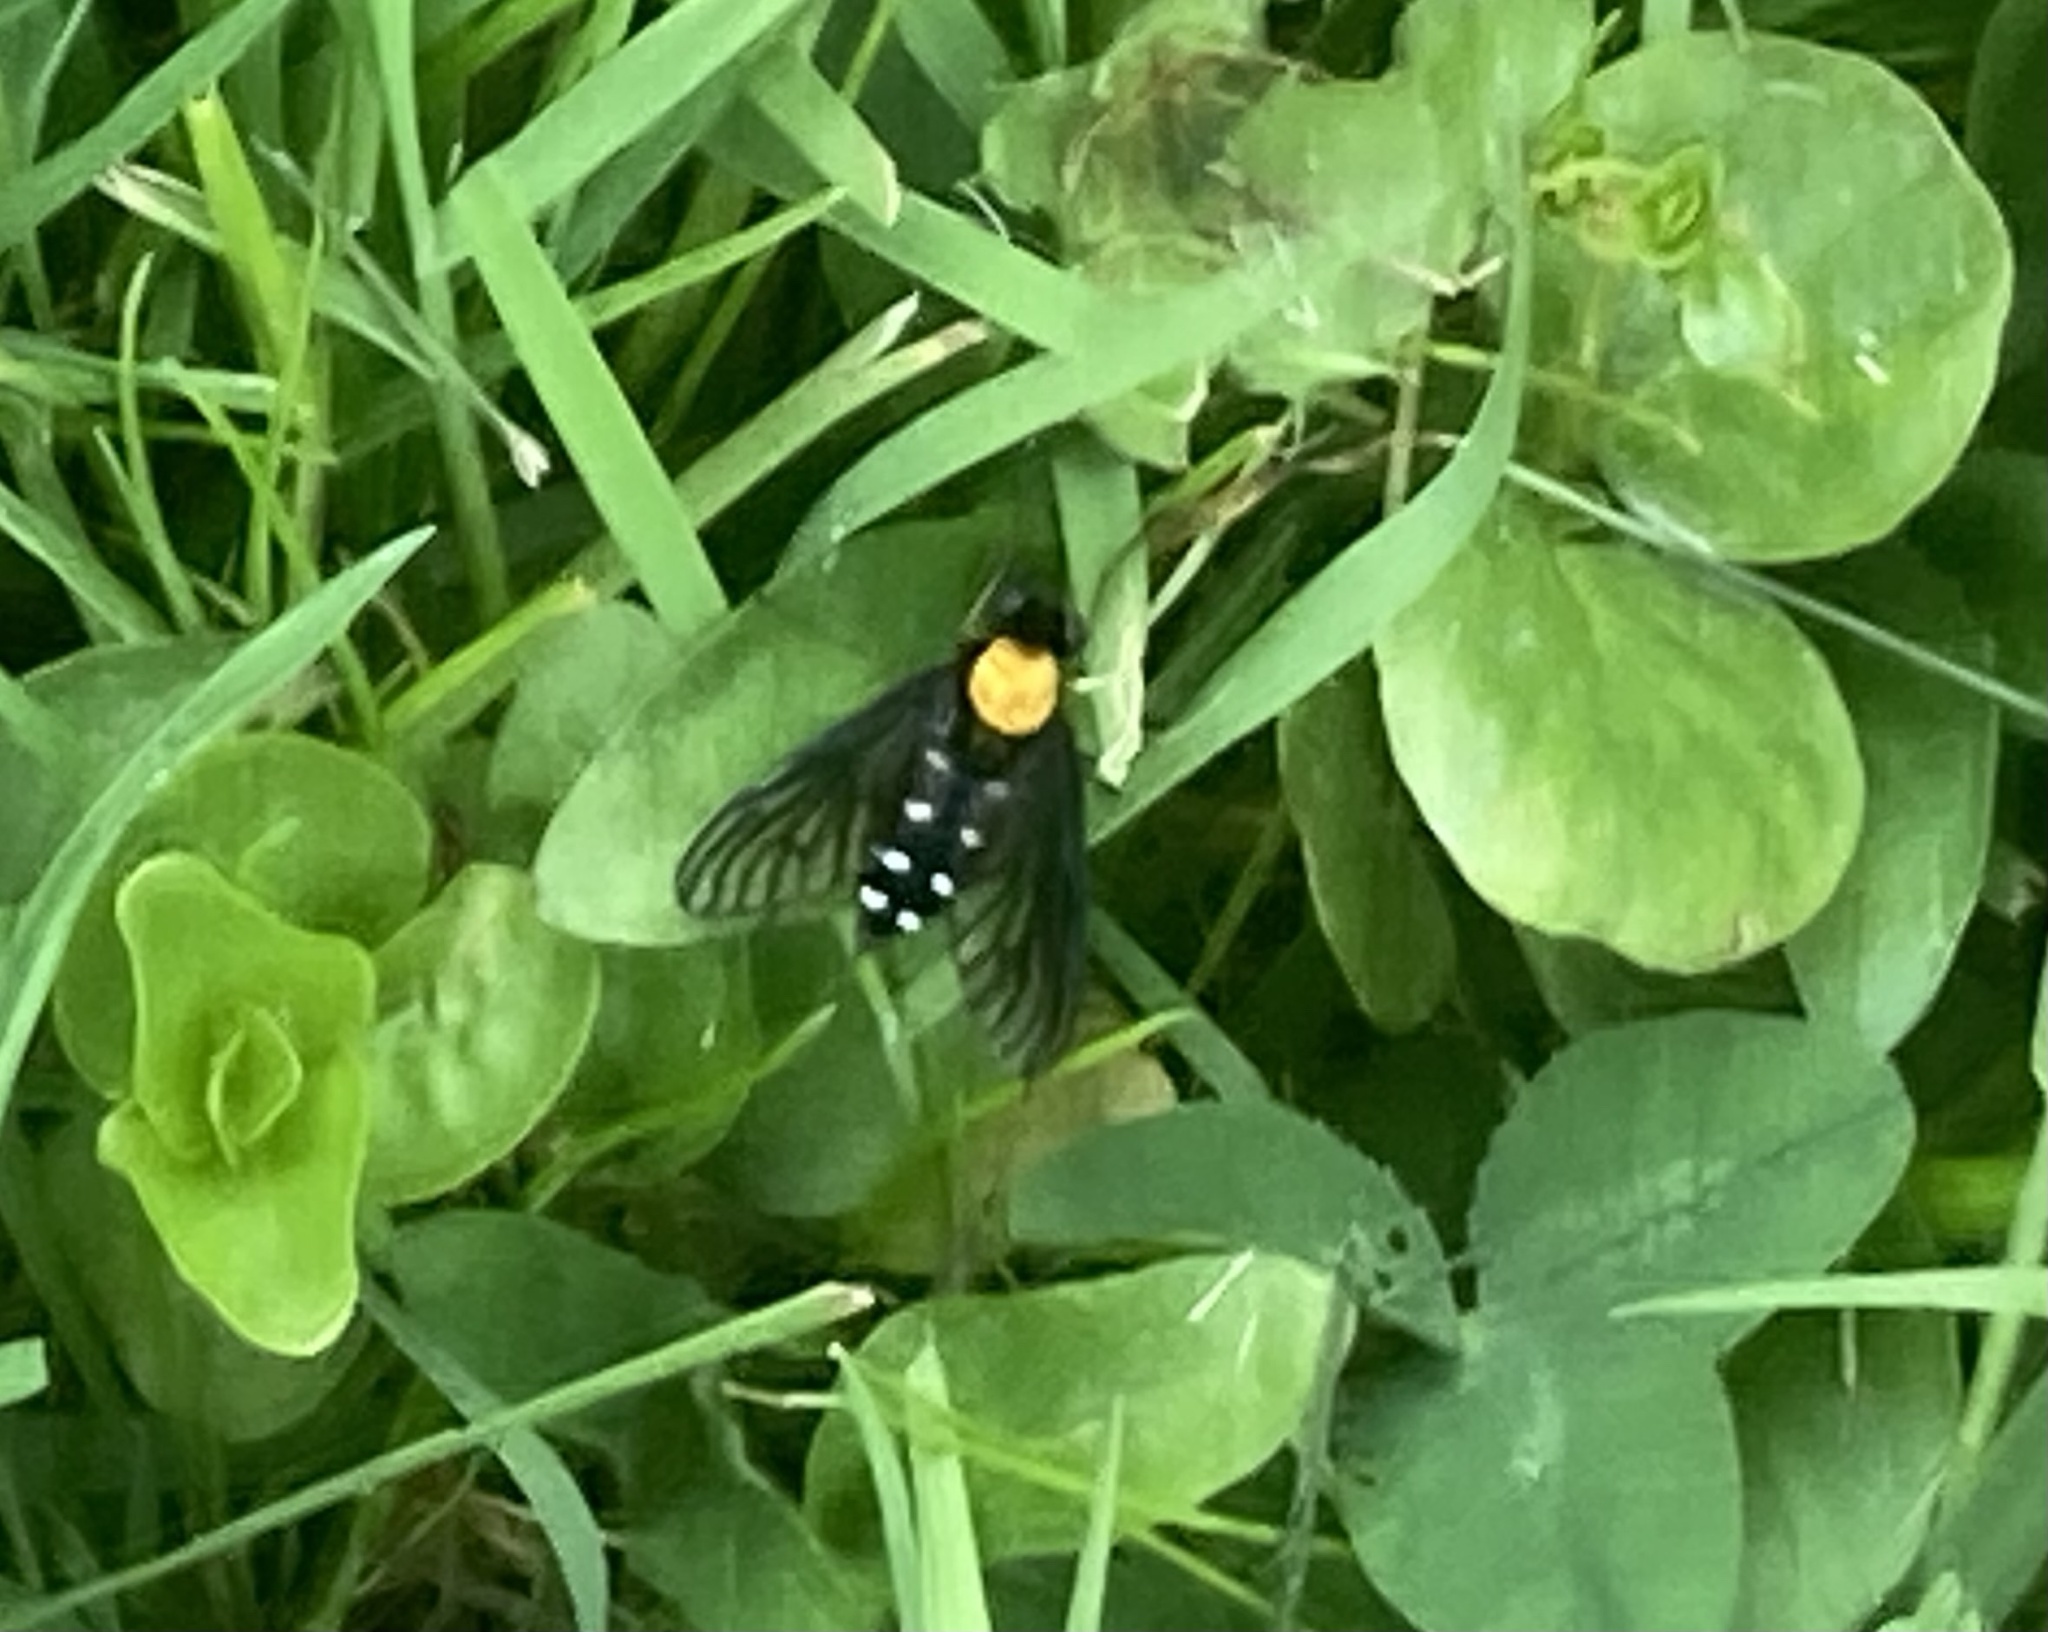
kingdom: Animalia
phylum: Arthropoda
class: Insecta
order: Diptera
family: Rhagionidae
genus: Chrysopilus
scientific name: Chrysopilus thoracicus
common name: Golden-backed snipe fly
